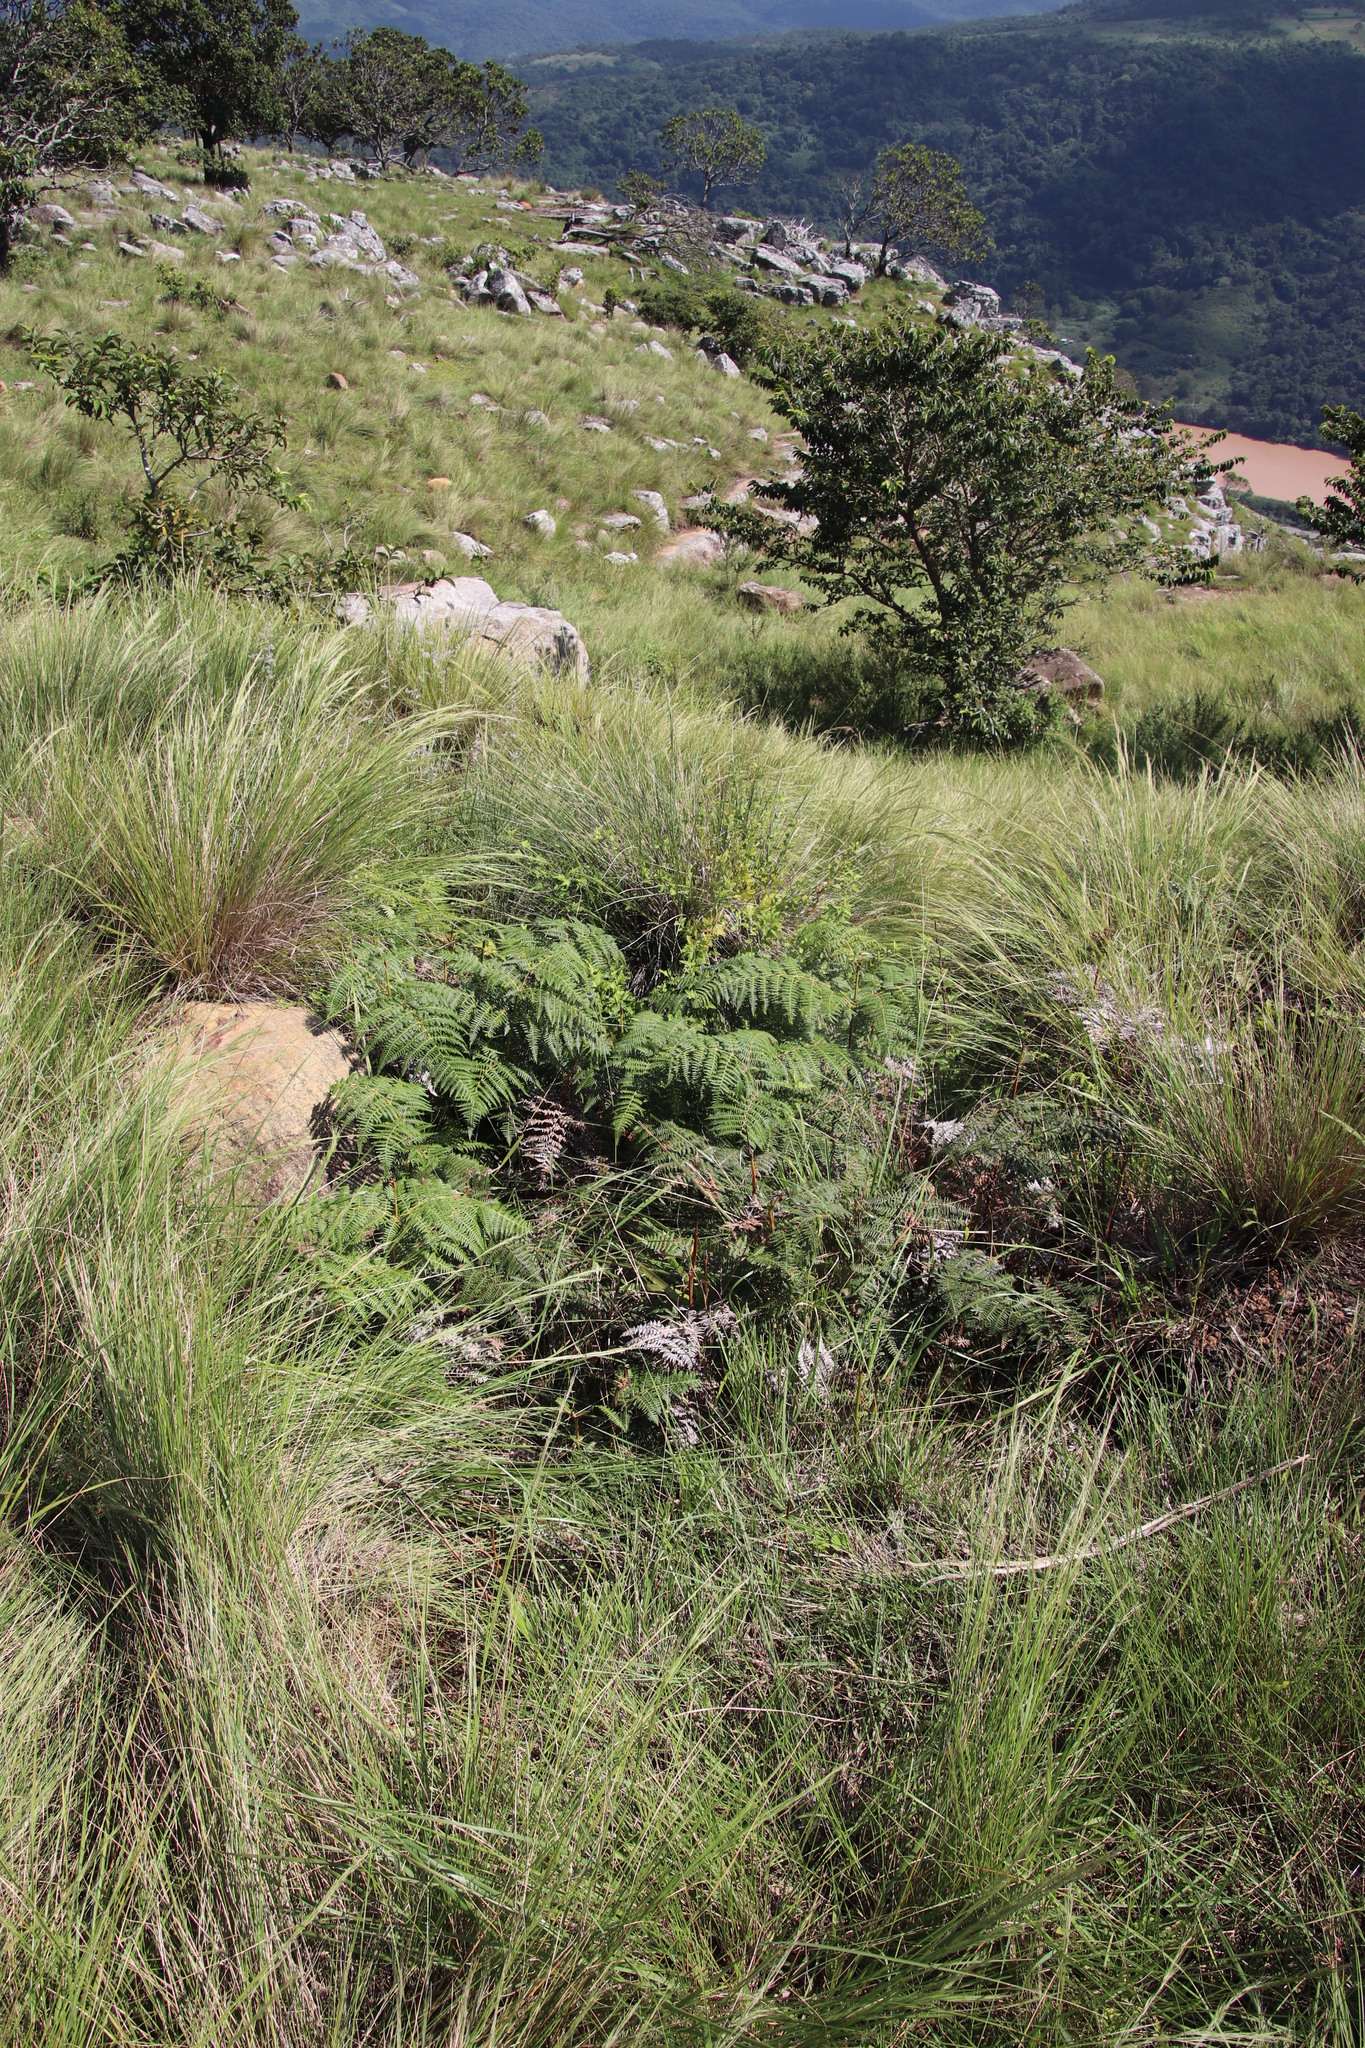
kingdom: Plantae
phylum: Tracheophyta
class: Polypodiopsida
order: Polypodiales
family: Dennstaedtiaceae
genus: Pteridium
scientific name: Pteridium aquilinum
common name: Bracken
